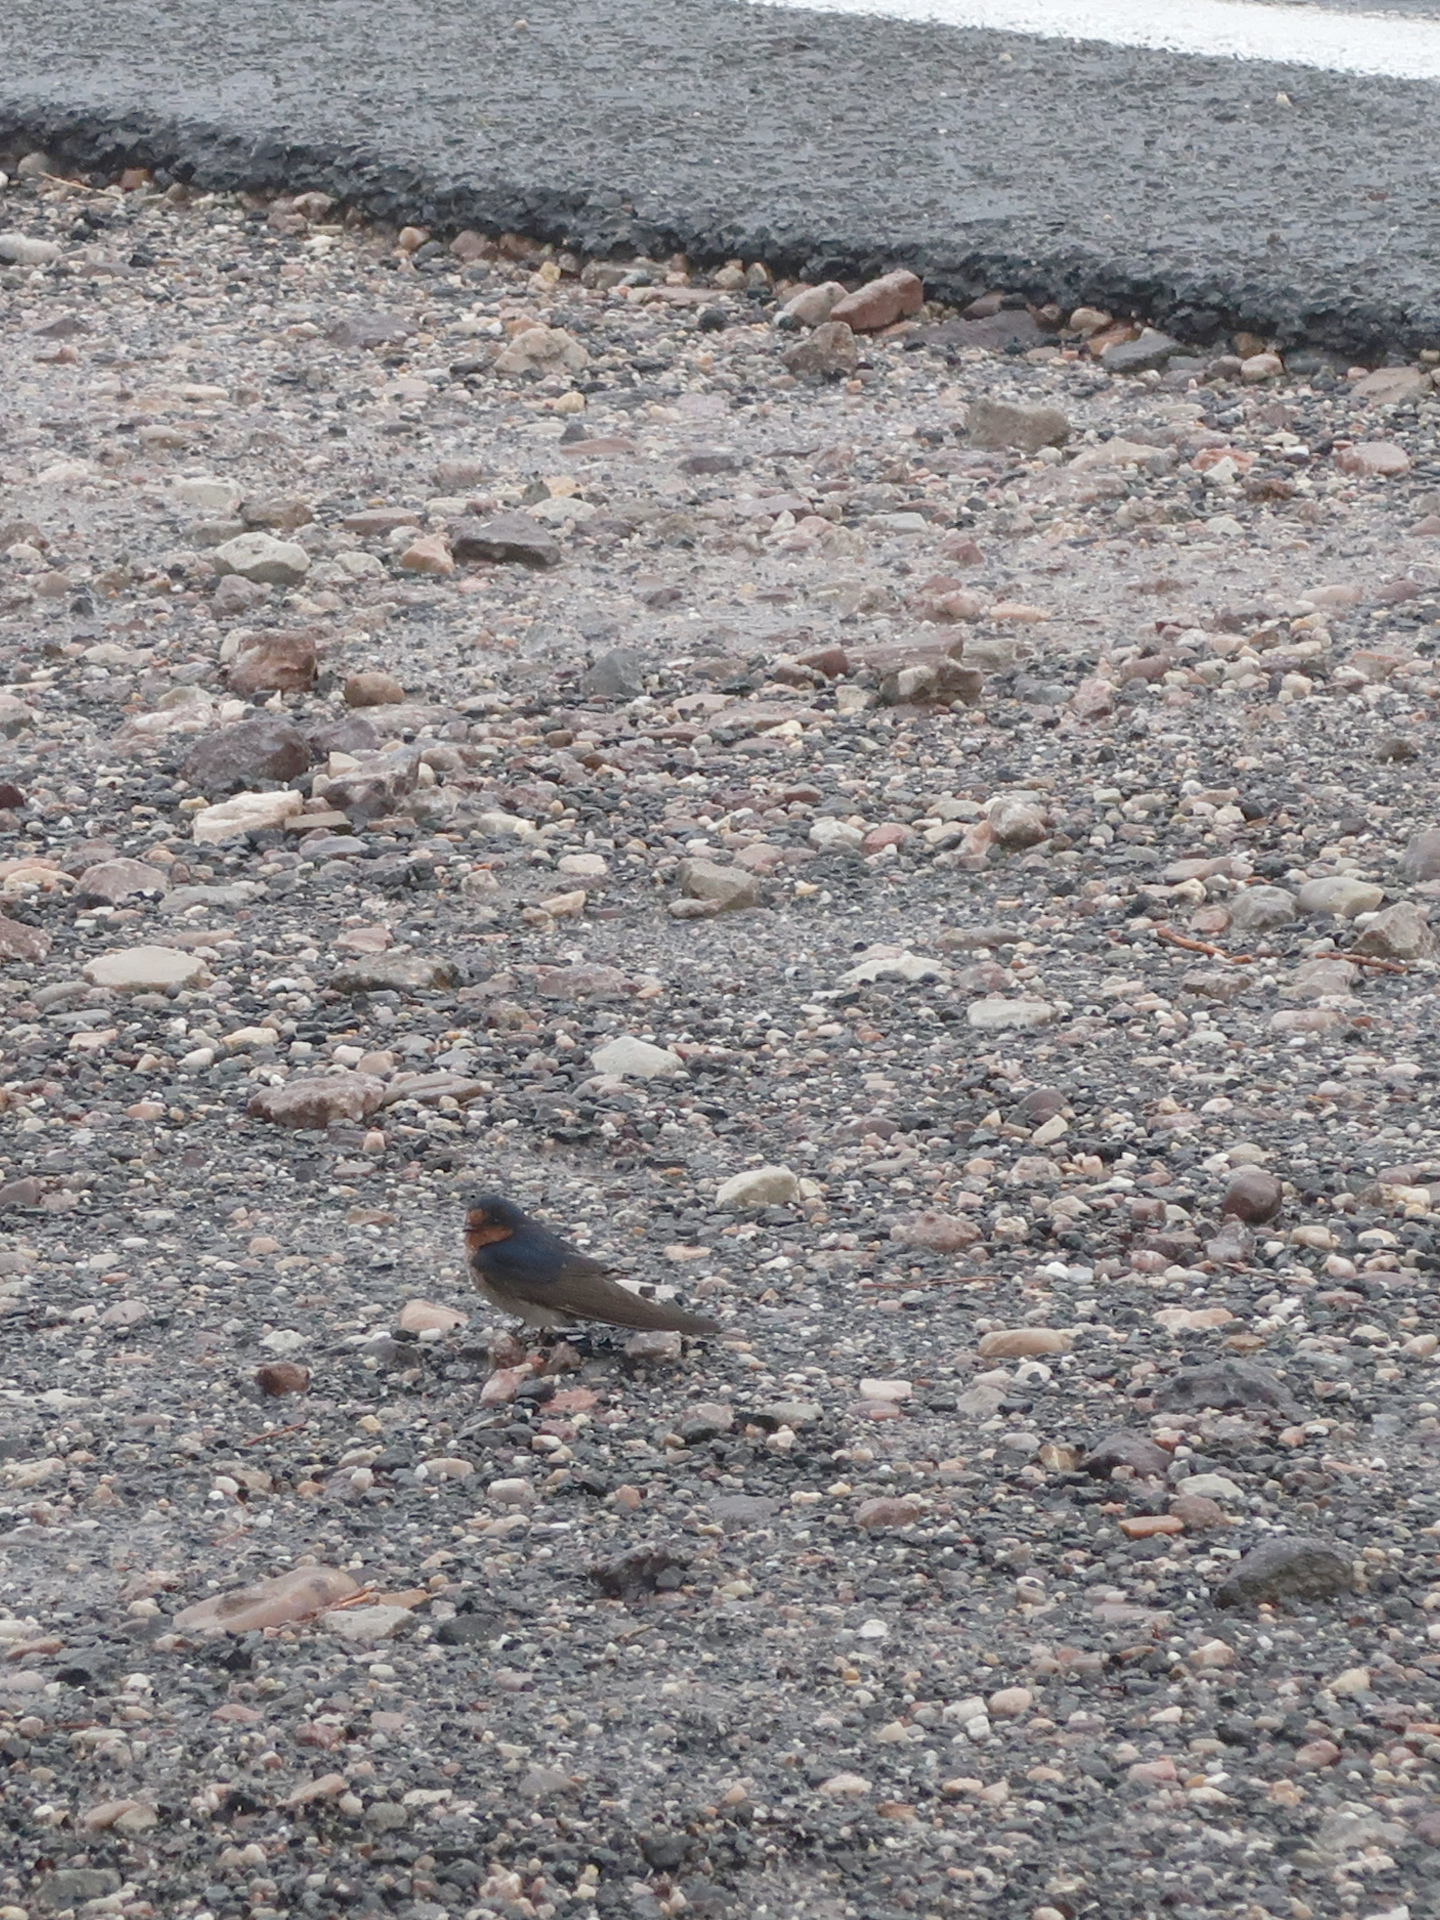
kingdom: Animalia
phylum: Chordata
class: Aves
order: Passeriformes
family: Hirundinidae
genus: Hirundo
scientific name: Hirundo neoxena
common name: Welcome swallow
